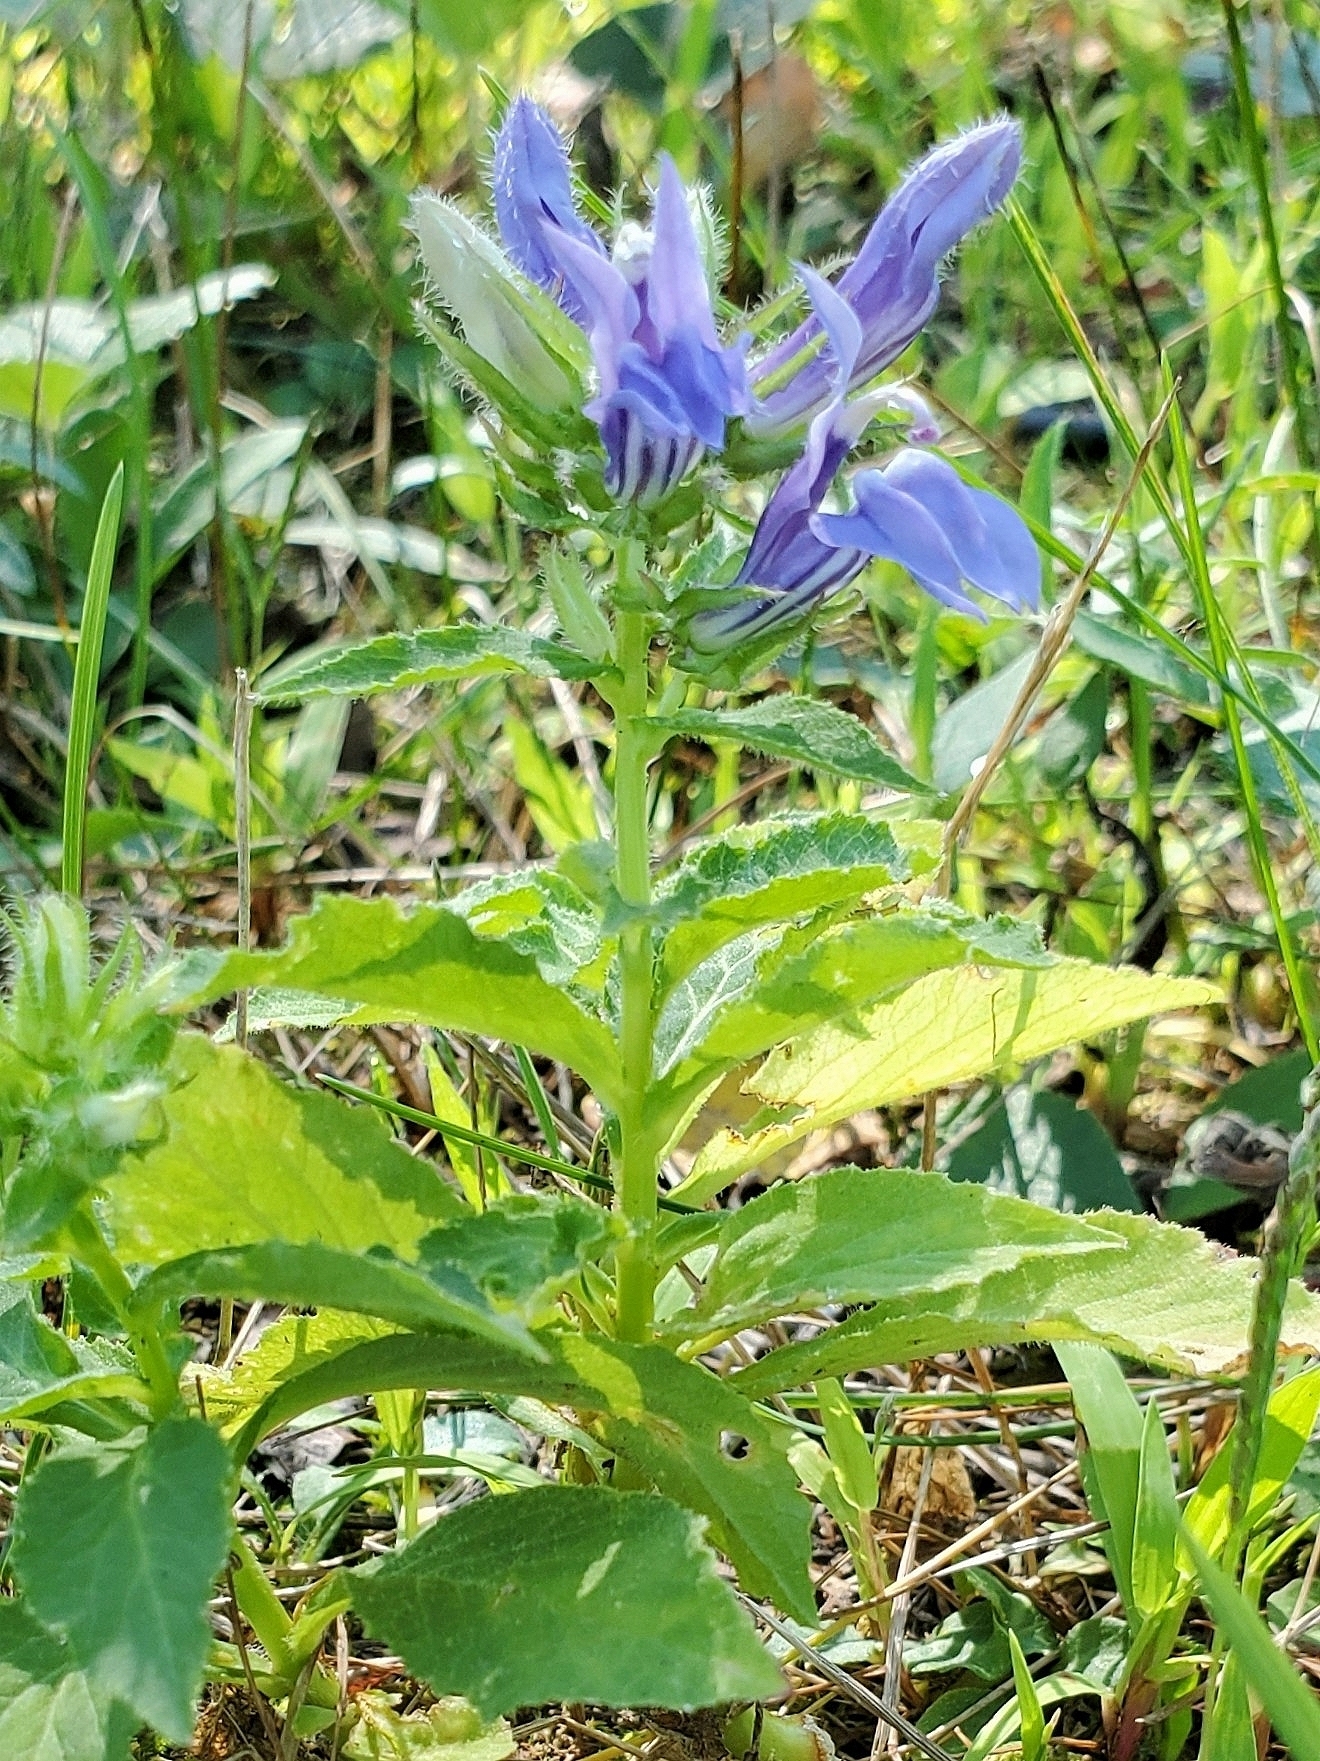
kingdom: Plantae
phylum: Tracheophyta
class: Magnoliopsida
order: Asterales
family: Campanulaceae
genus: Lobelia
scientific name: Lobelia siphilitica
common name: Great lobelia
